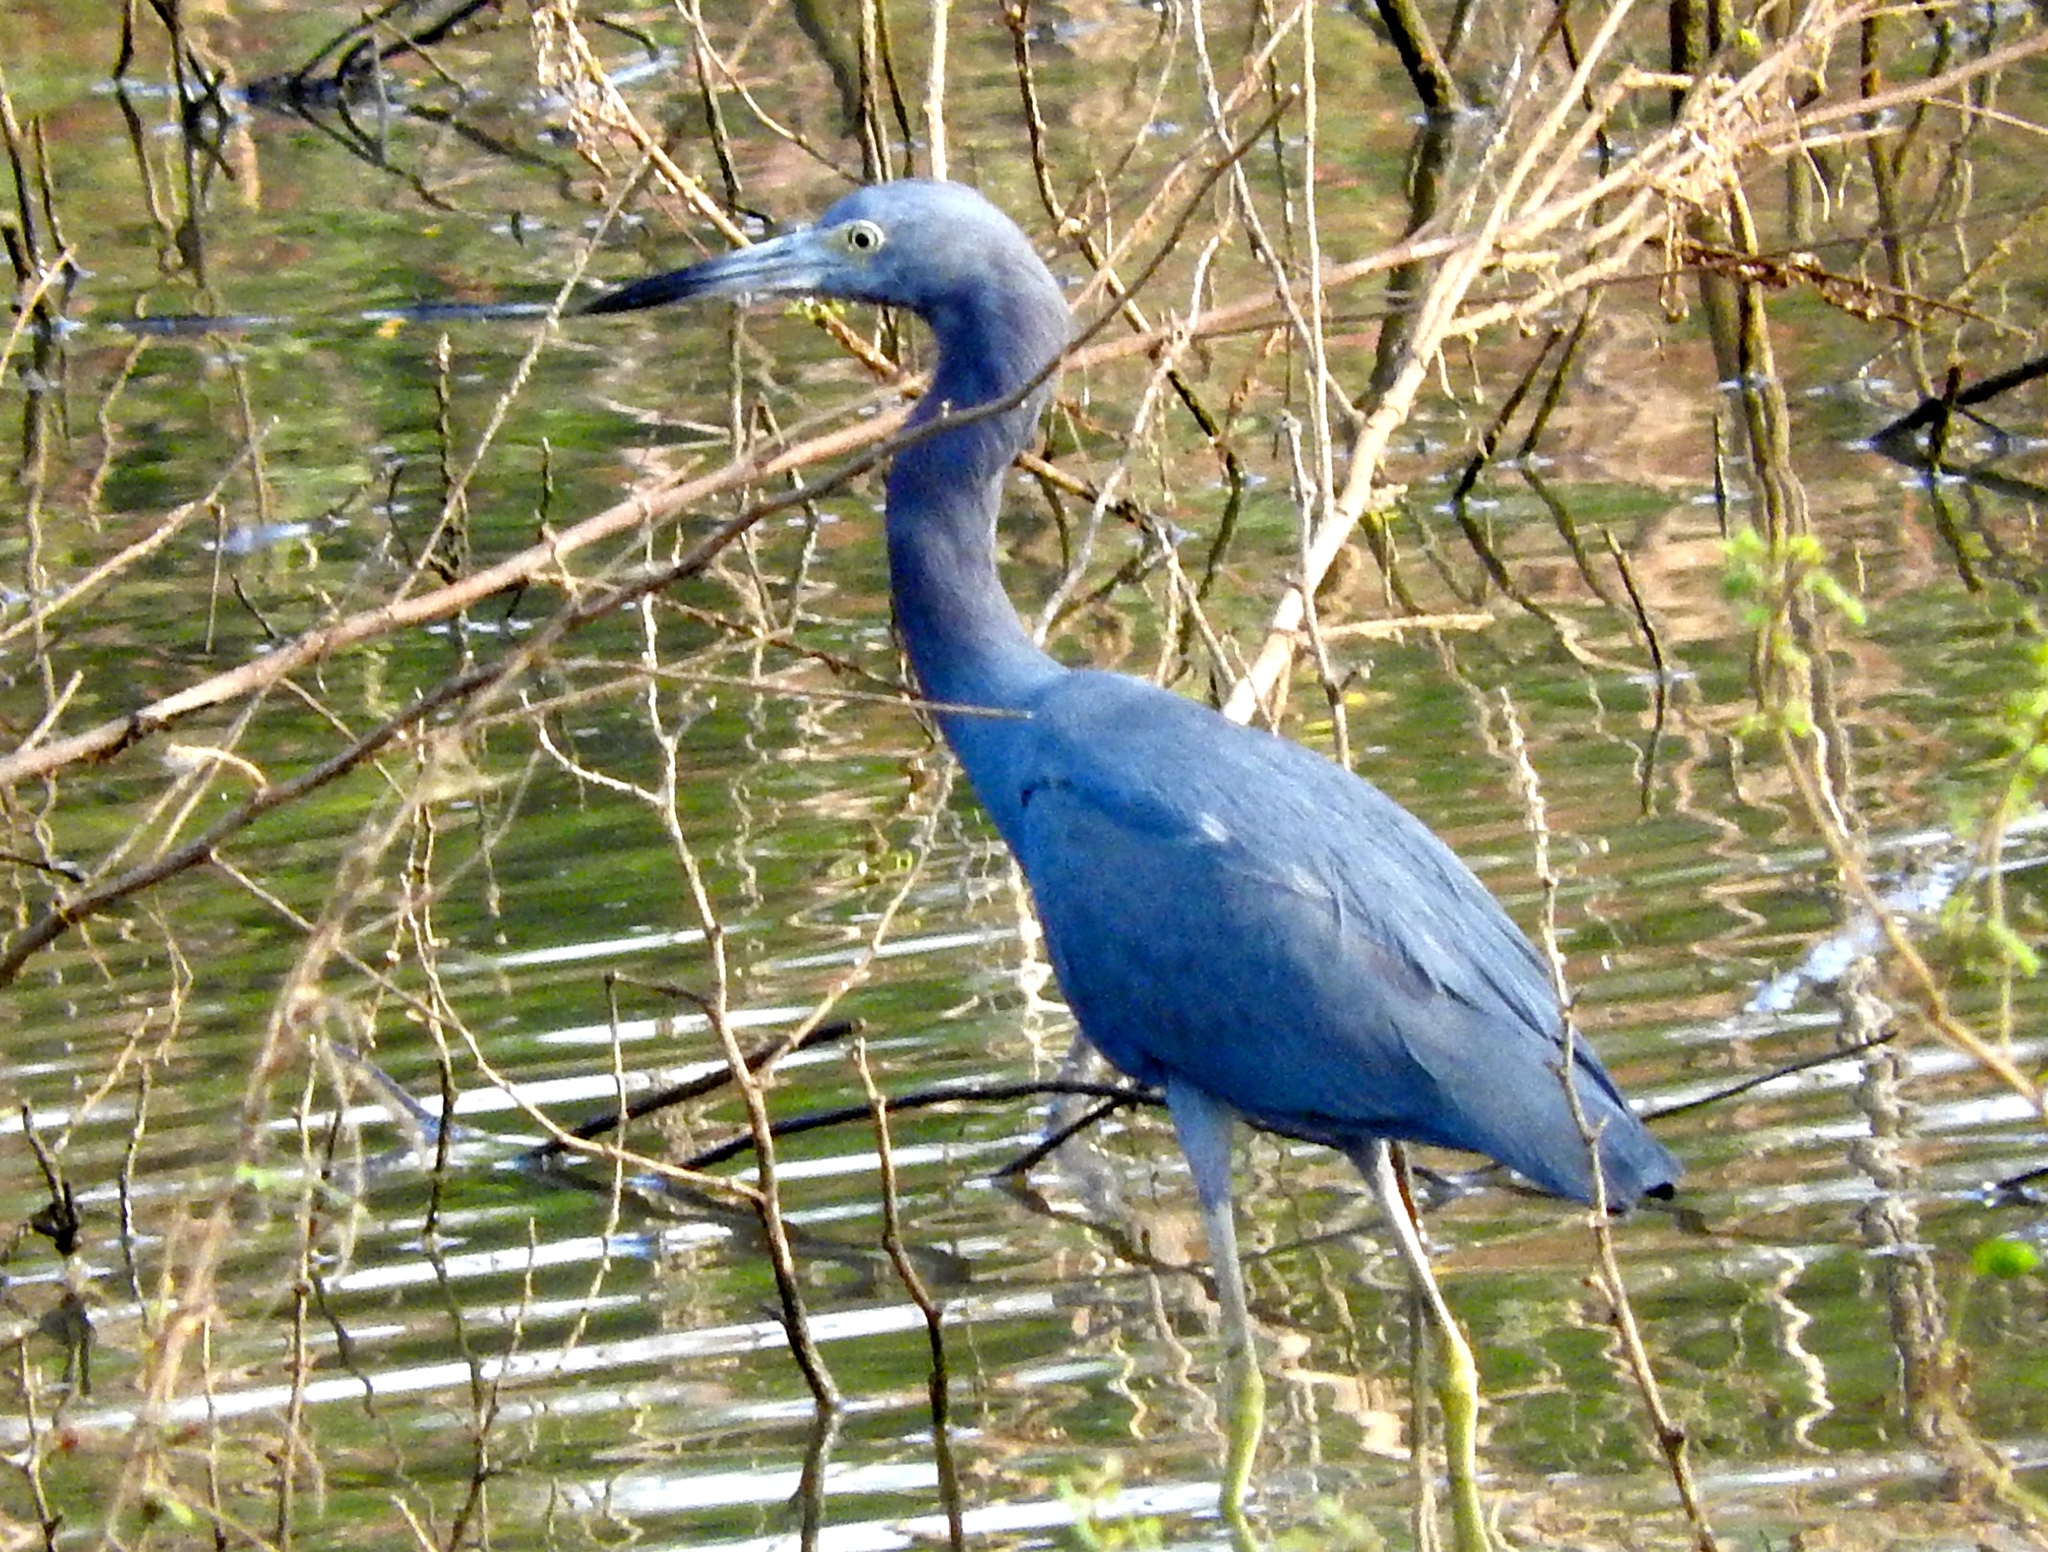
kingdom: Animalia
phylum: Chordata
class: Aves
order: Pelecaniformes
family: Ardeidae
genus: Egretta
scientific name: Egretta caerulea
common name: Little blue heron
